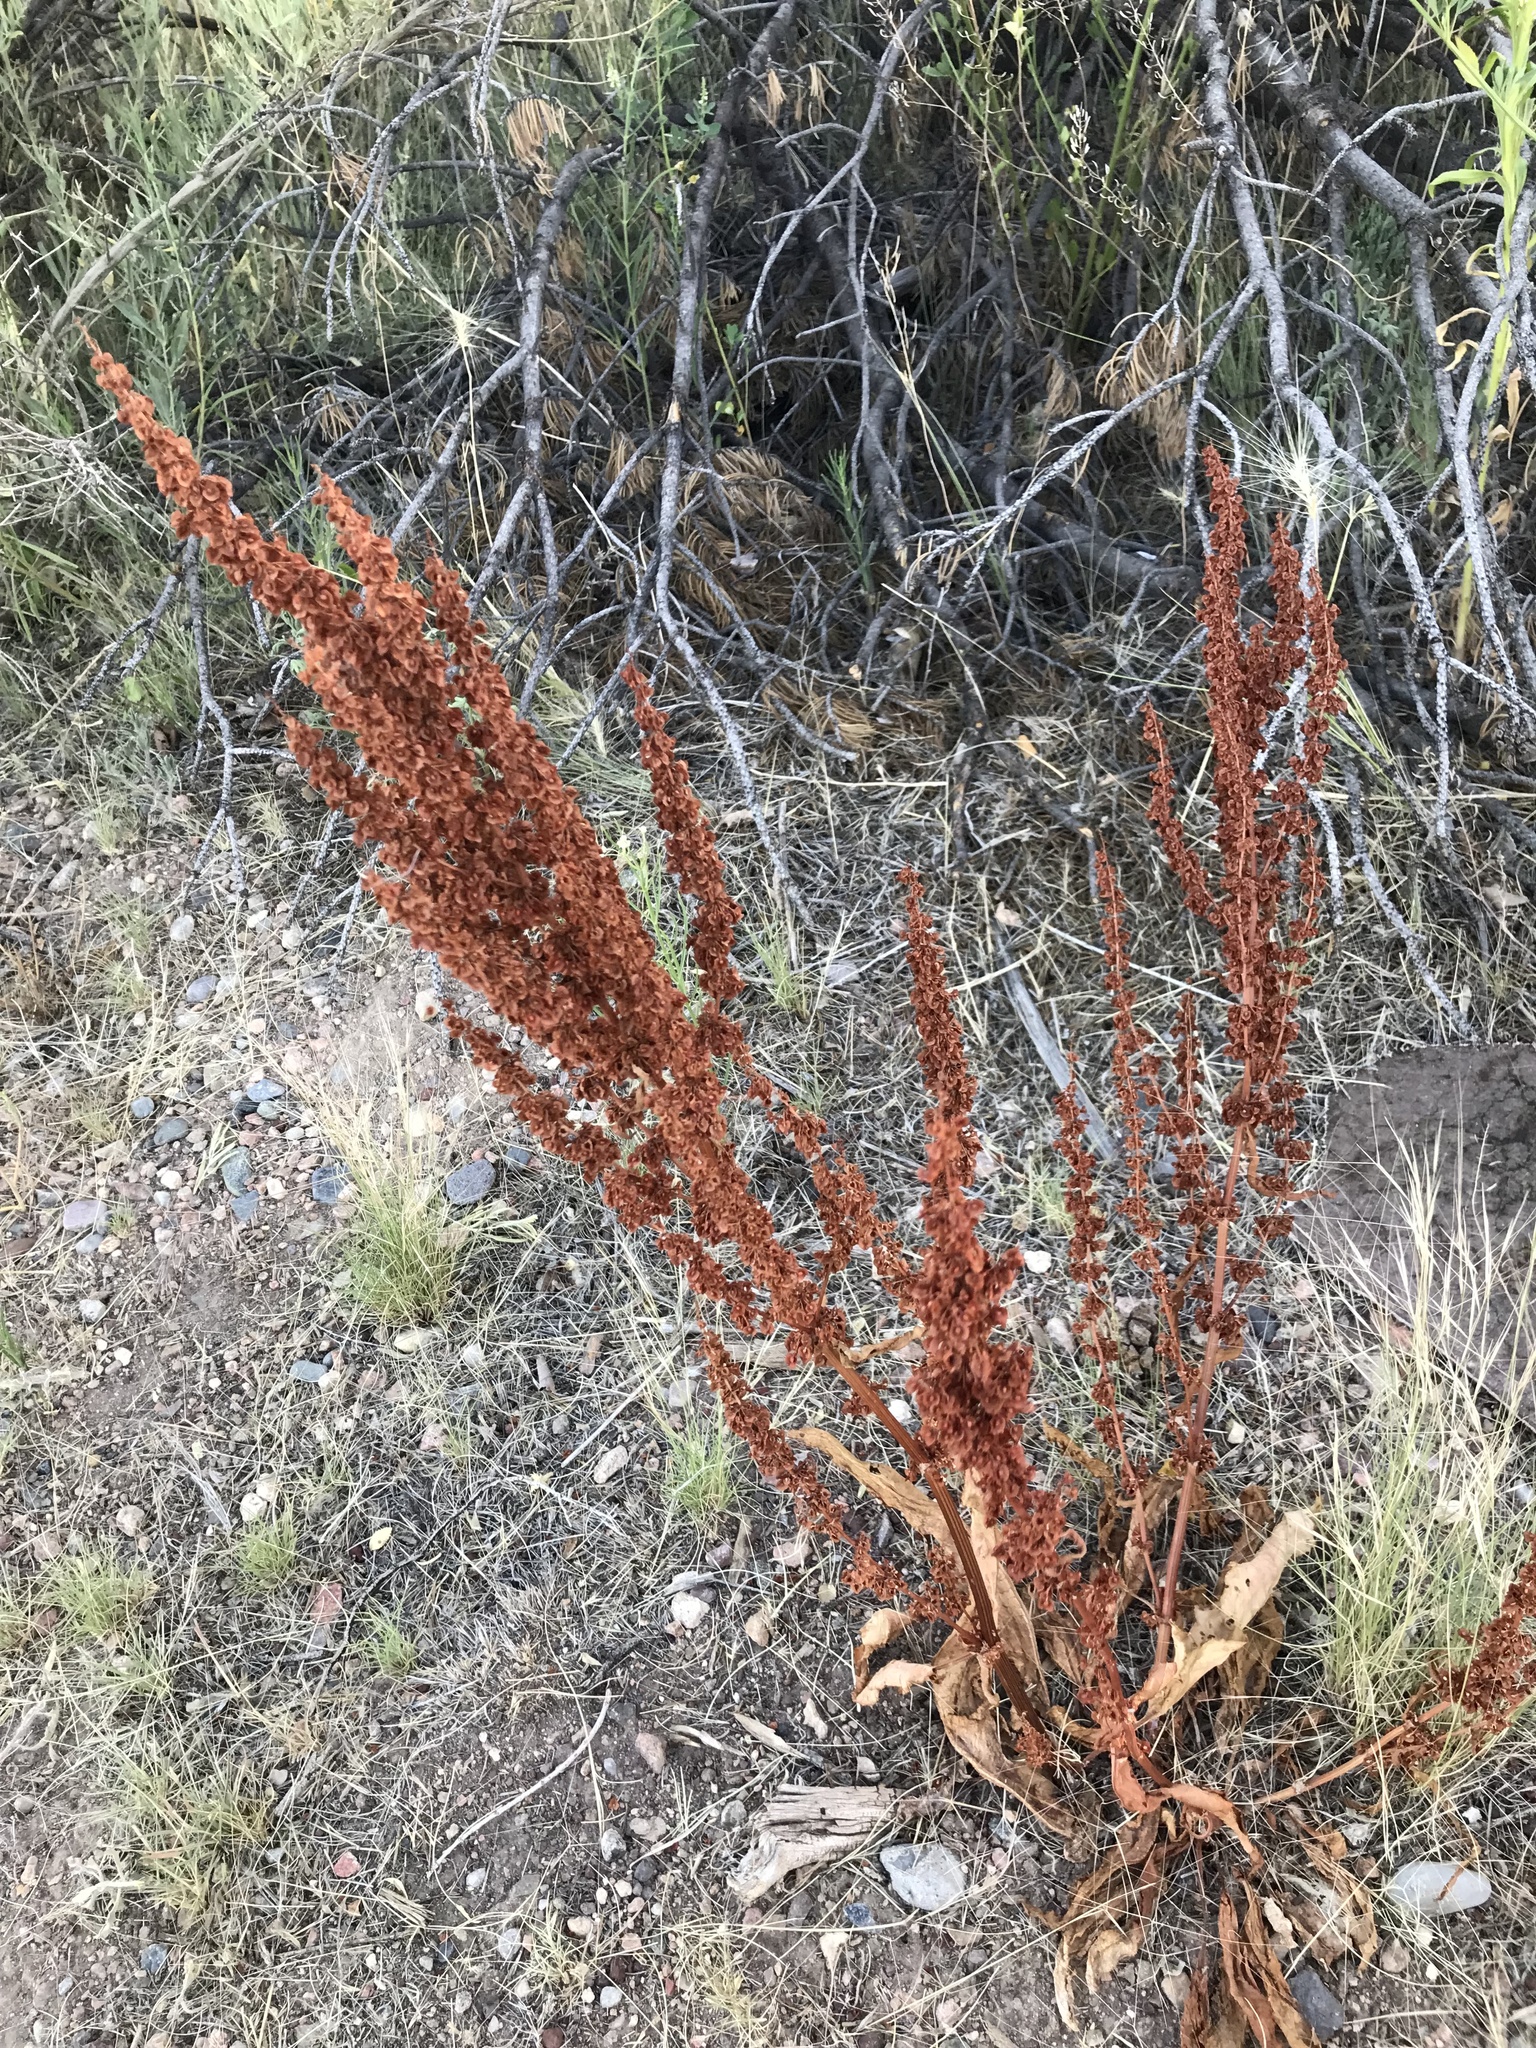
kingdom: Plantae
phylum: Tracheophyta
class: Magnoliopsida
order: Caryophyllales
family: Polygonaceae
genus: Rumex
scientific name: Rumex crispus
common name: Curled dock
